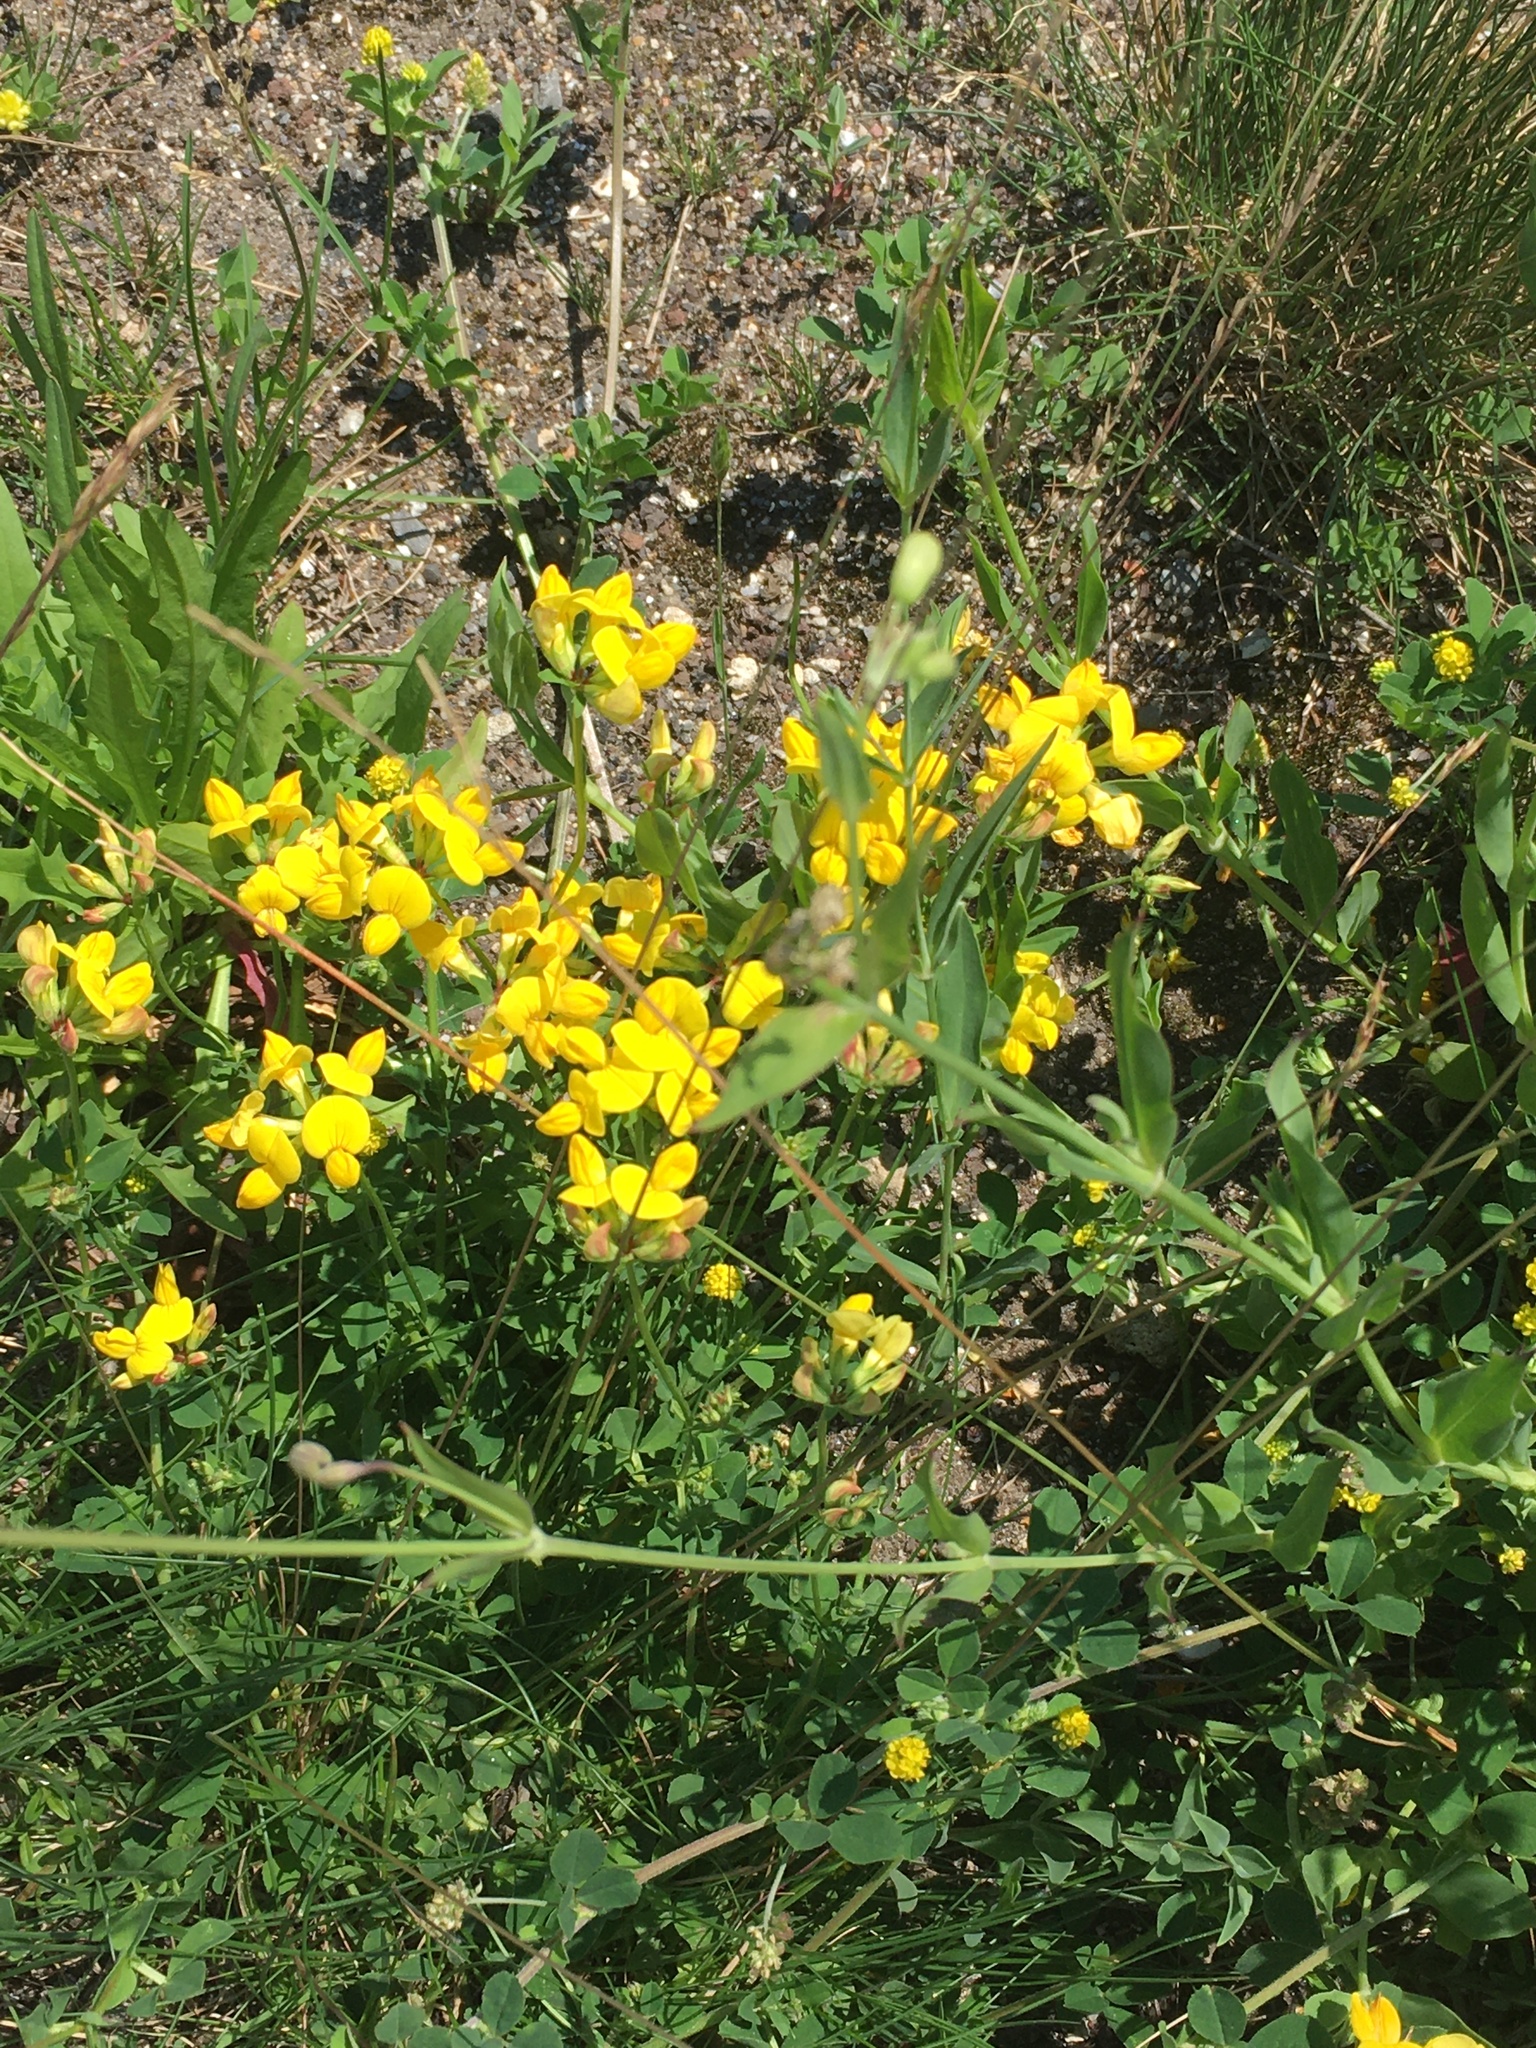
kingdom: Plantae
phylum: Tracheophyta
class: Magnoliopsida
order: Fabales
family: Fabaceae
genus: Lotus
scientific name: Lotus corniculatus
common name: Common bird's-foot-trefoil
